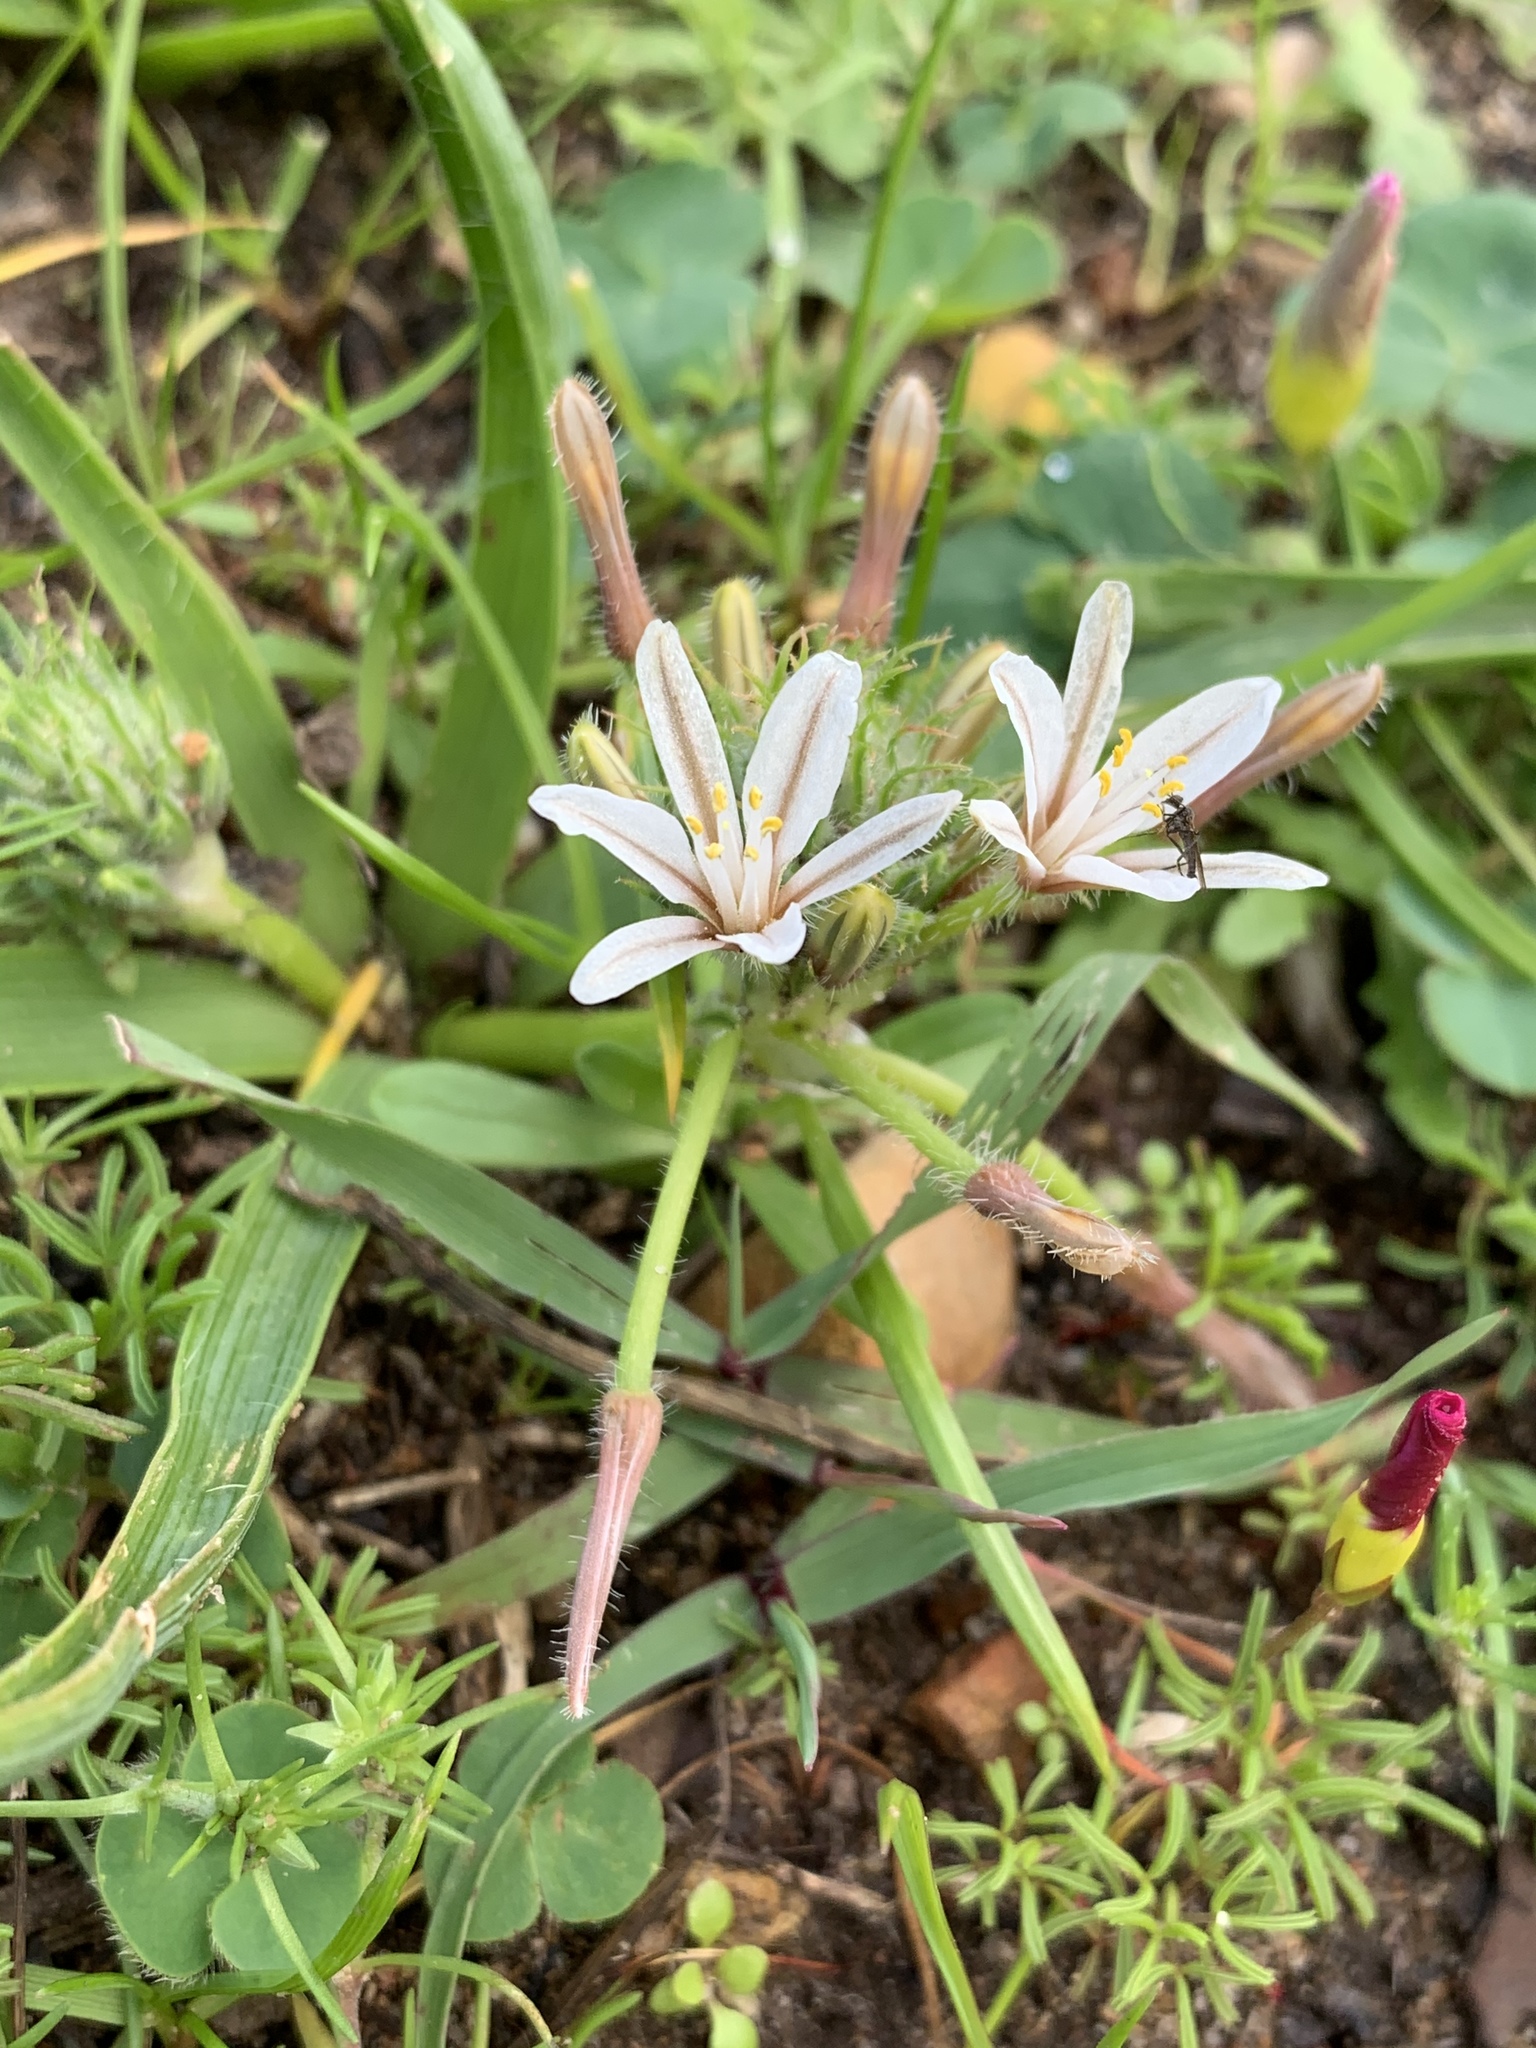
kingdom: Plantae
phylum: Tracheophyta
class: Liliopsida
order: Asparagales
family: Asphodelaceae
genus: Trachyandra
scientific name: Trachyandra hispida
